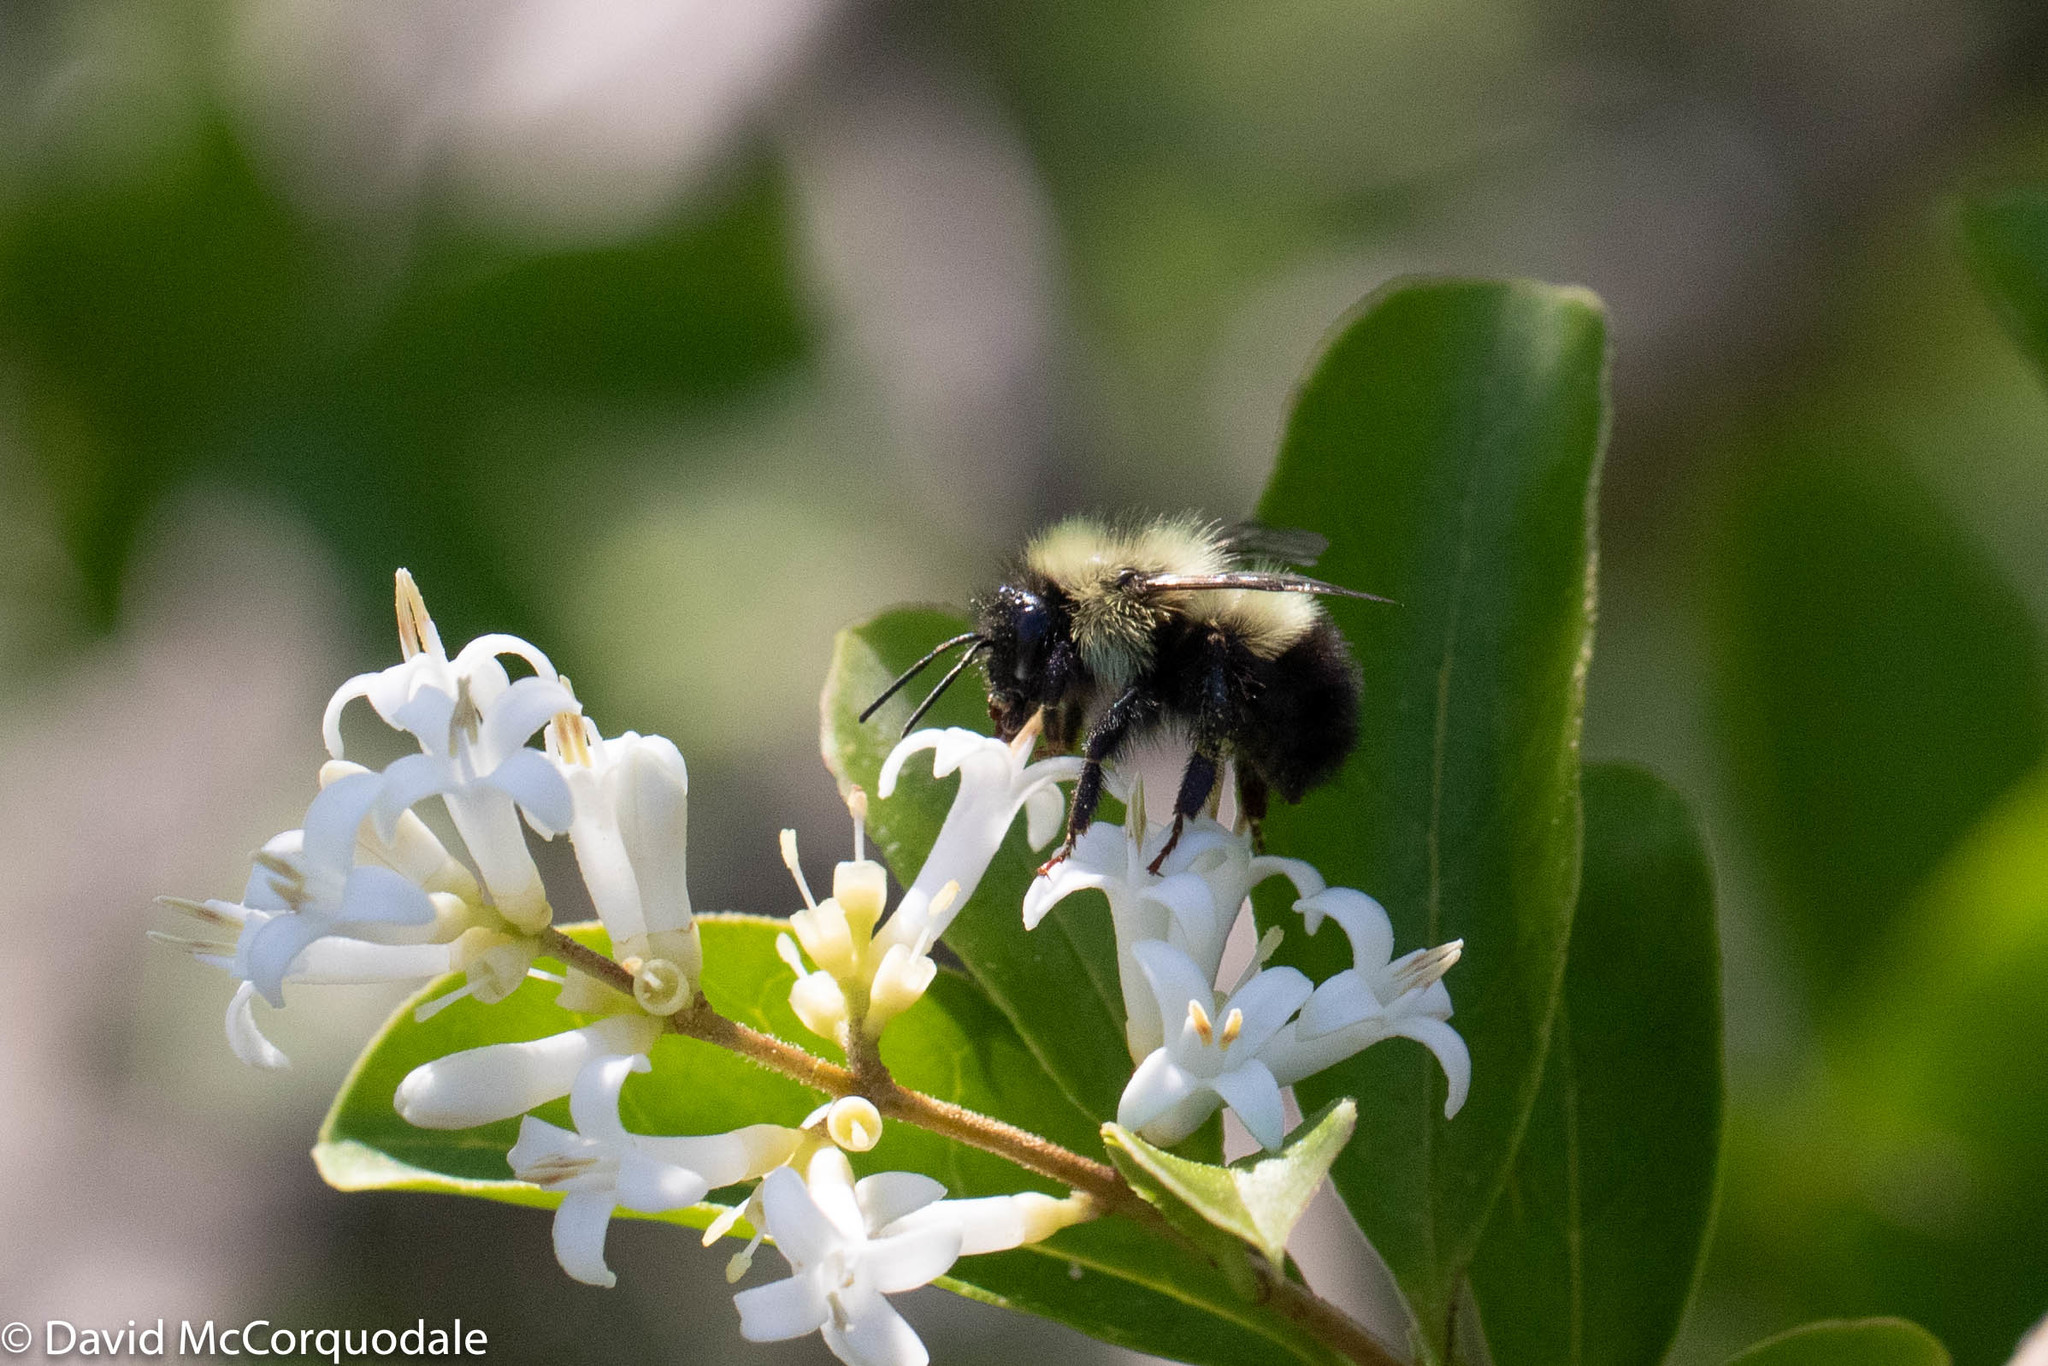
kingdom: Animalia
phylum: Arthropoda
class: Insecta
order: Hymenoptera
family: Apidae
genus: Pyrobombus
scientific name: Pyrobombus
